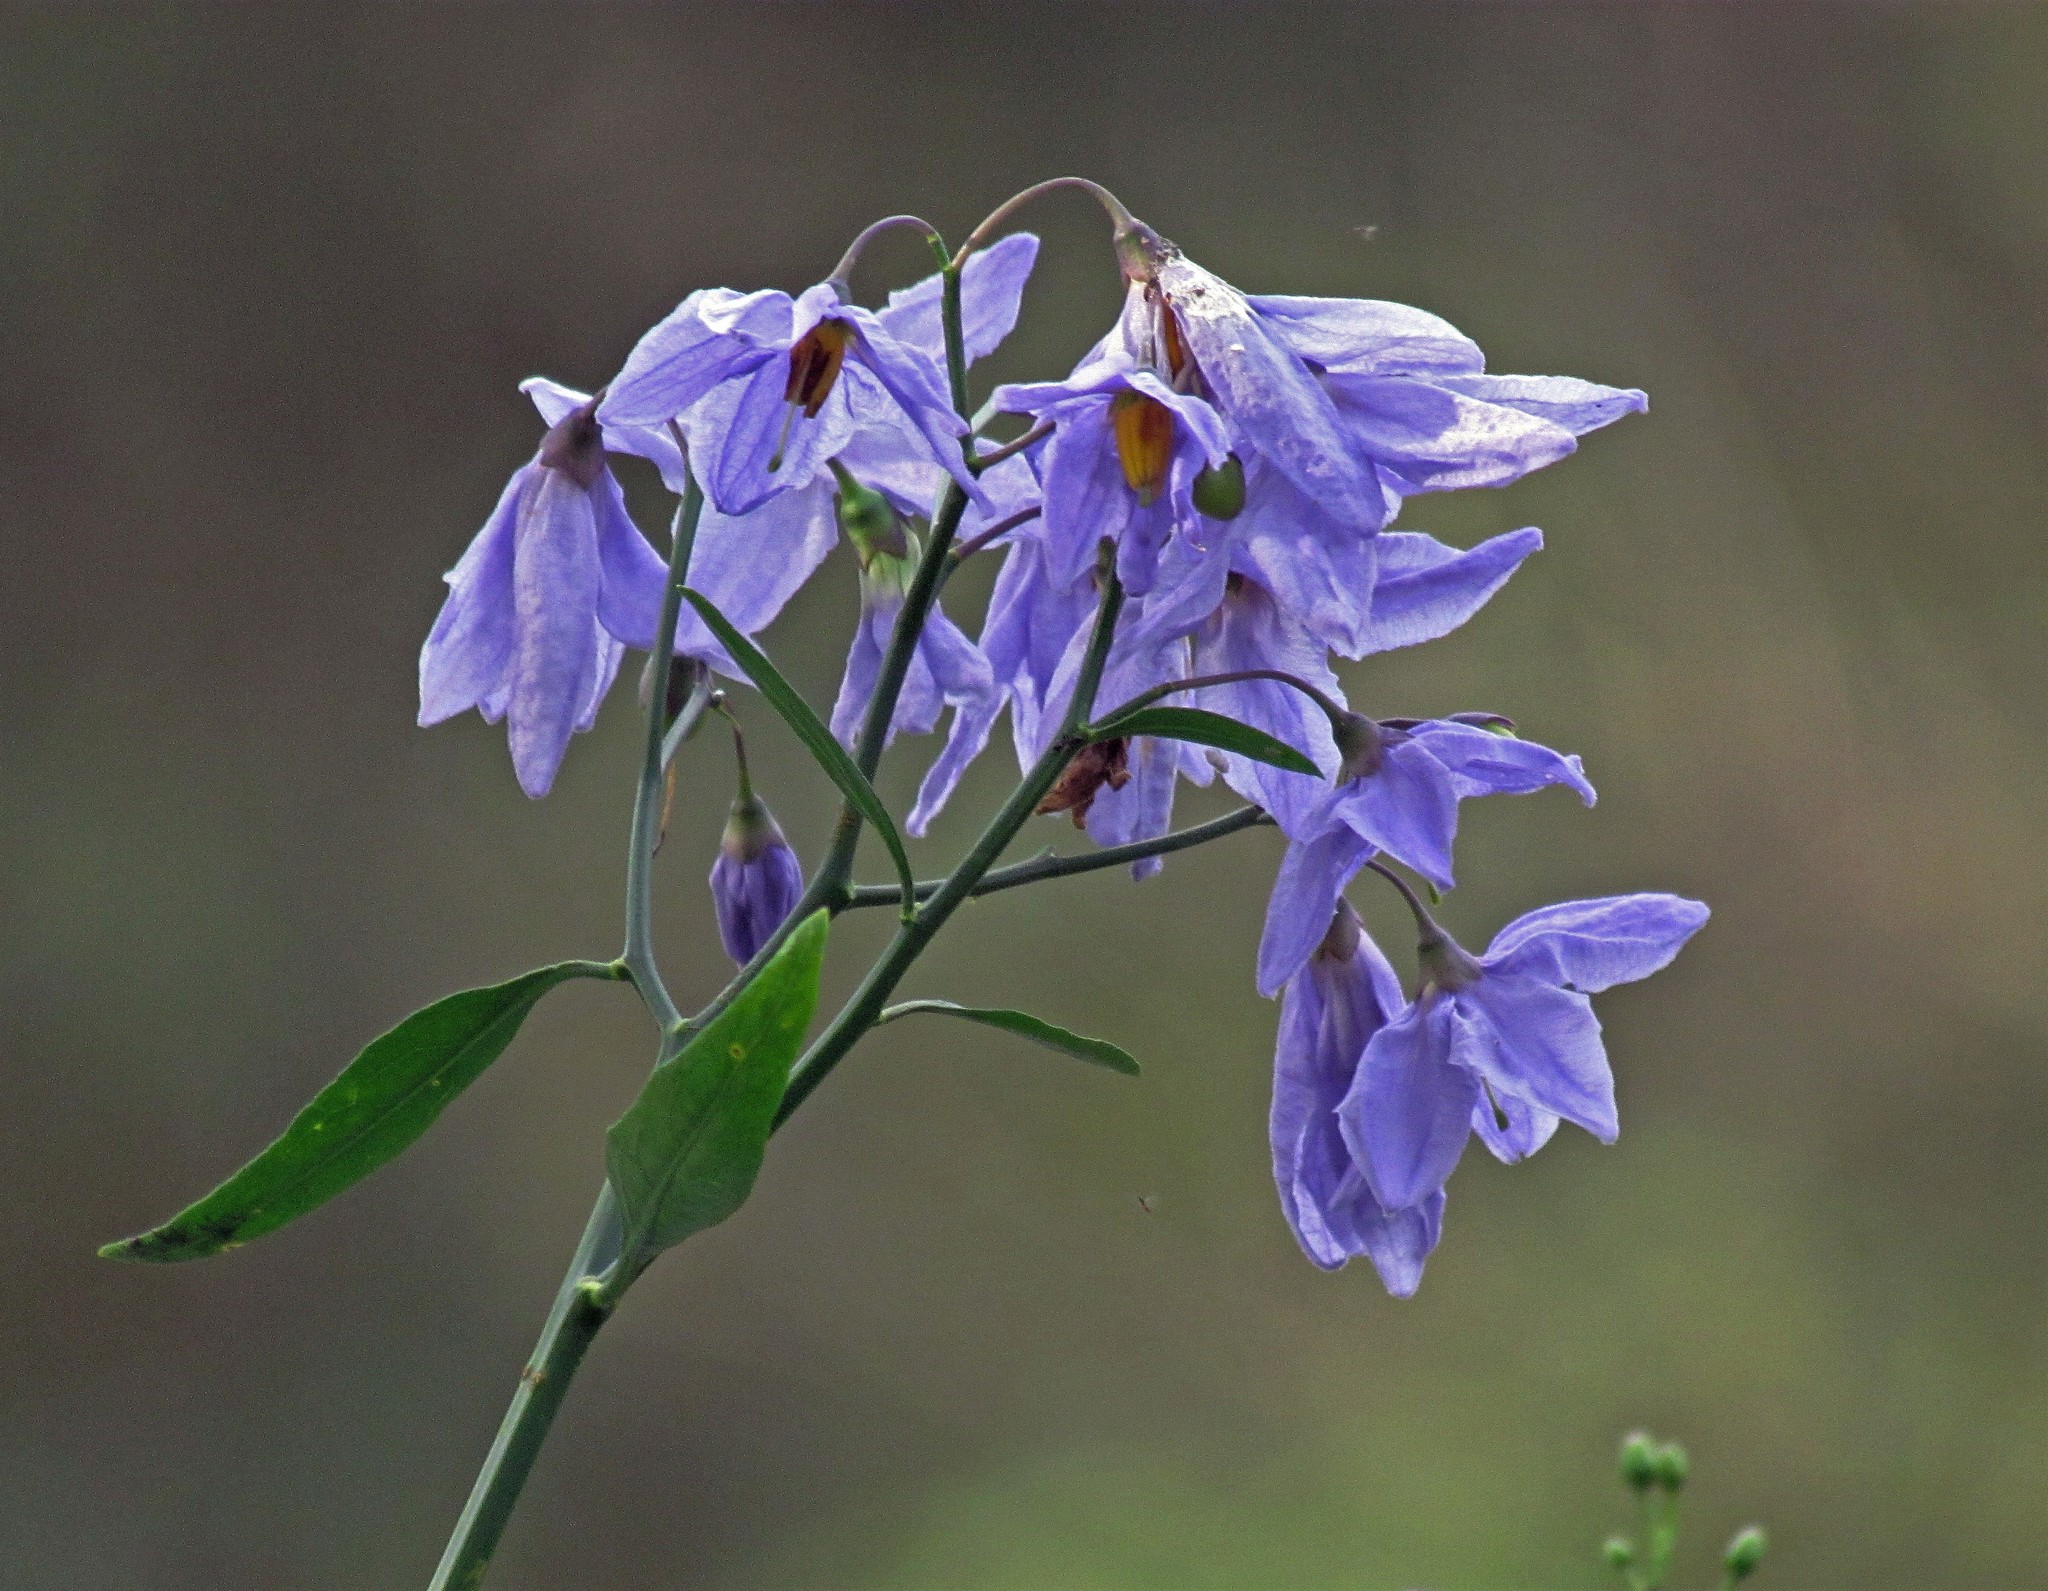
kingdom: Plantae
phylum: Tracheophyta
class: Magnoliopsida
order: Solanales
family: Solanaceae
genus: Solanum
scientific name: Solanum glaucophyllum
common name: Waxyleaf nightshade
